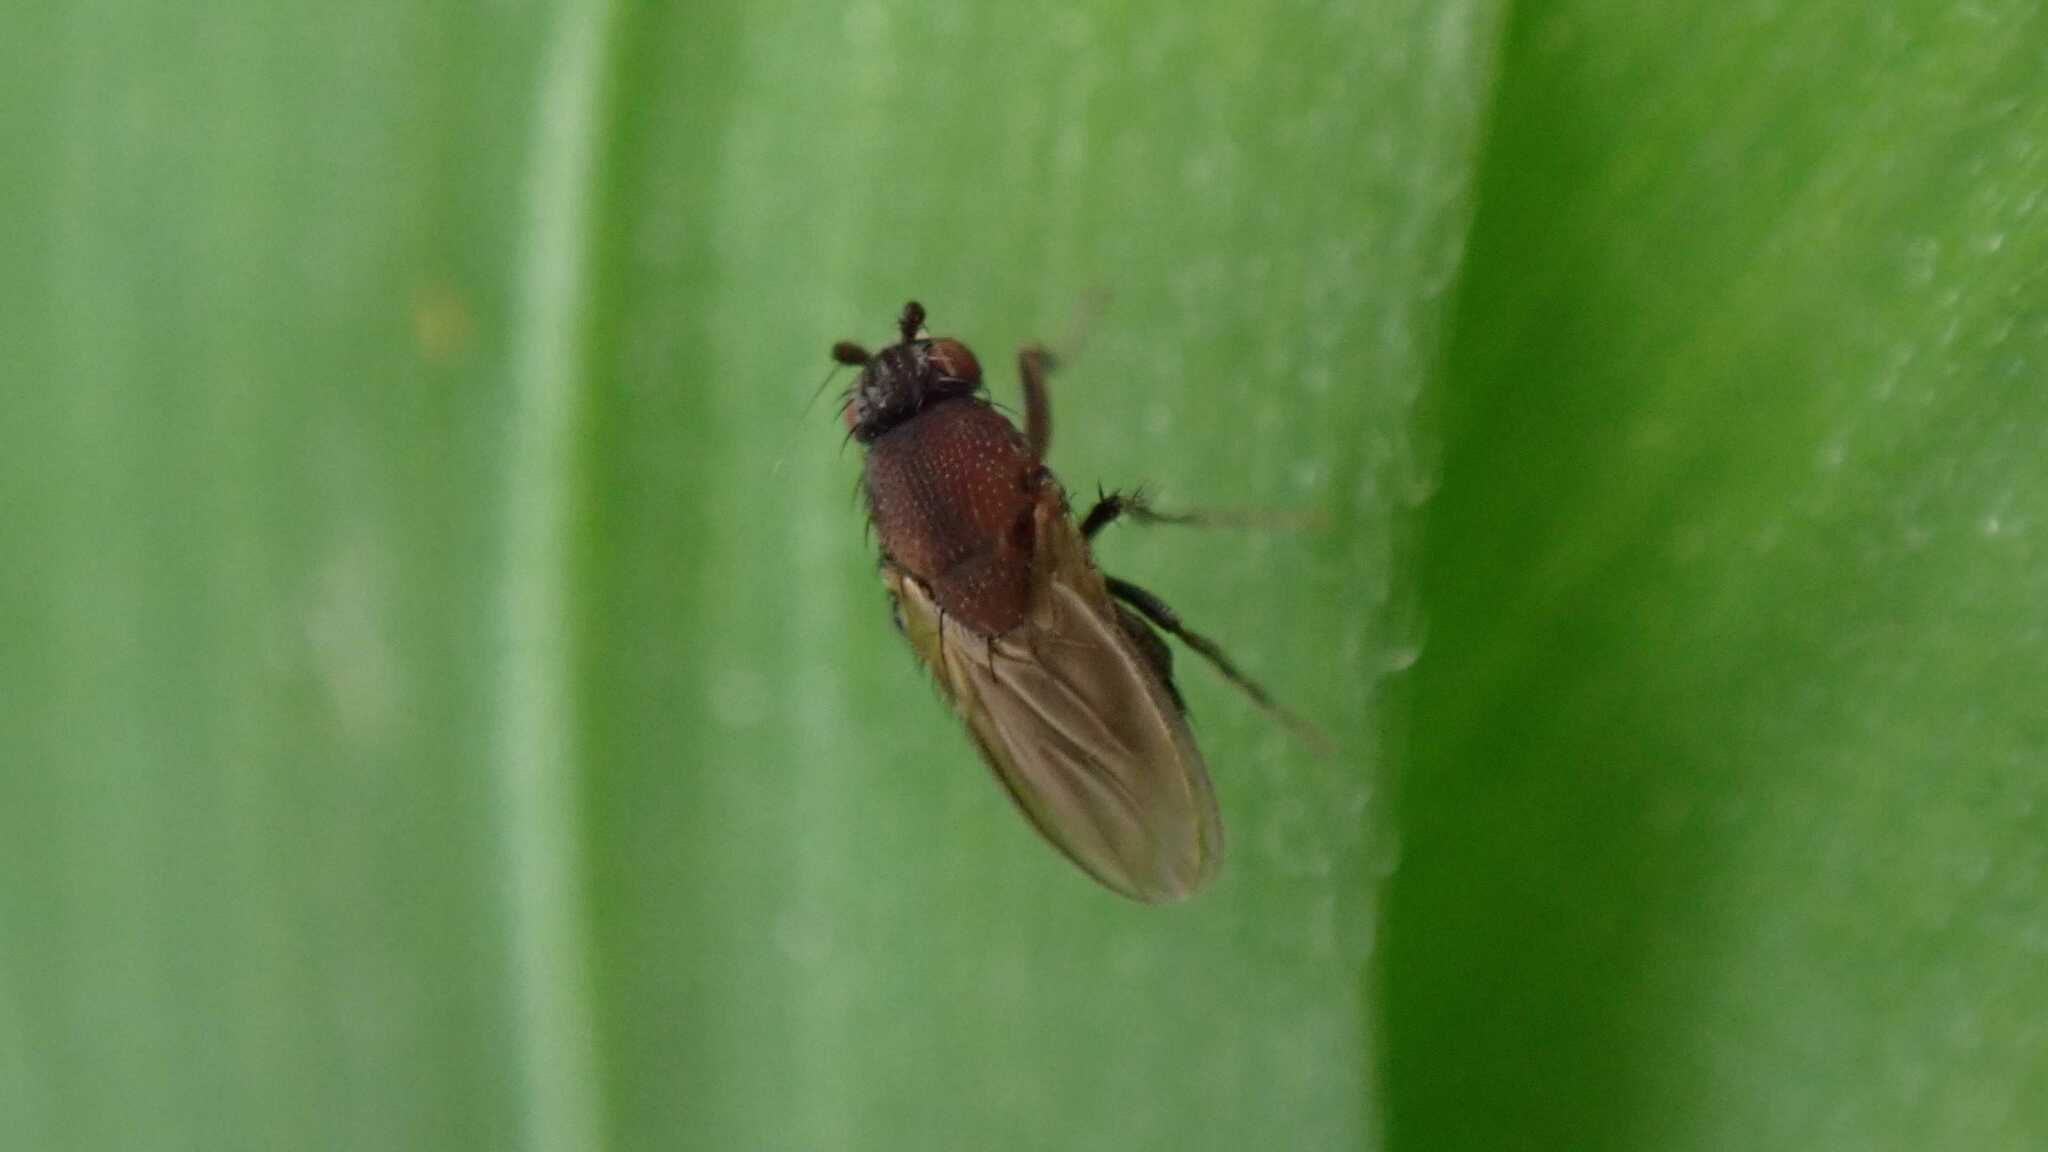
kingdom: Animalia
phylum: Arthropoda
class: Insecta
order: Diptera
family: Sphaeroceridae
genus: Coproica
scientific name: Coproica ferruginata
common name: Fly
